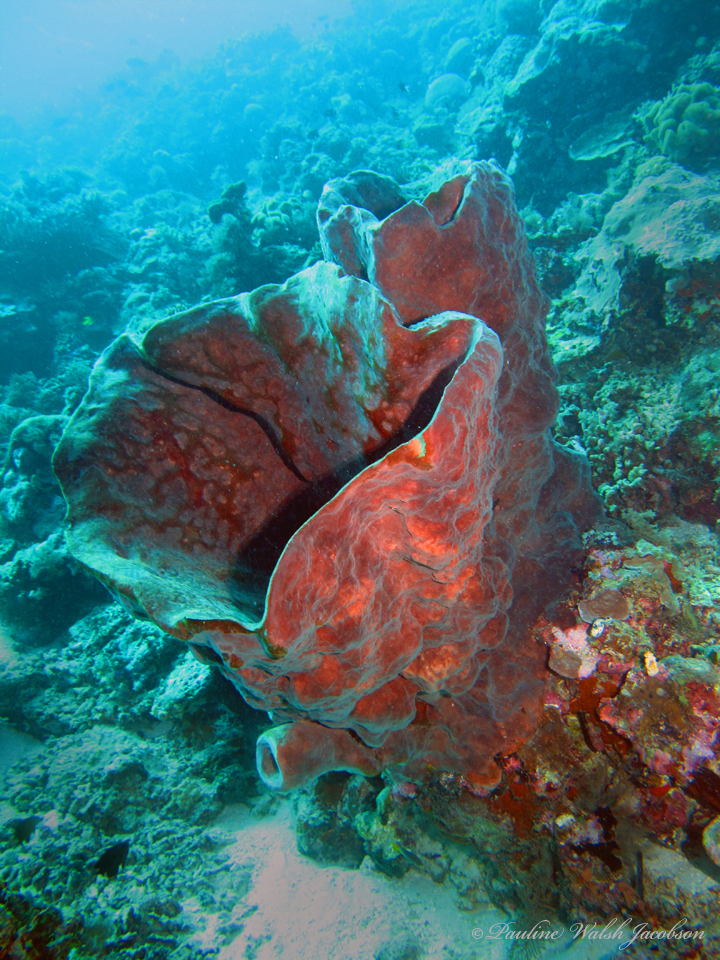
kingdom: Animalia
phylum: Porifera
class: Demospongiae
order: Haplosclerida
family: Petrosiidae
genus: Petrosia
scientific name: Petrosia lignosa
